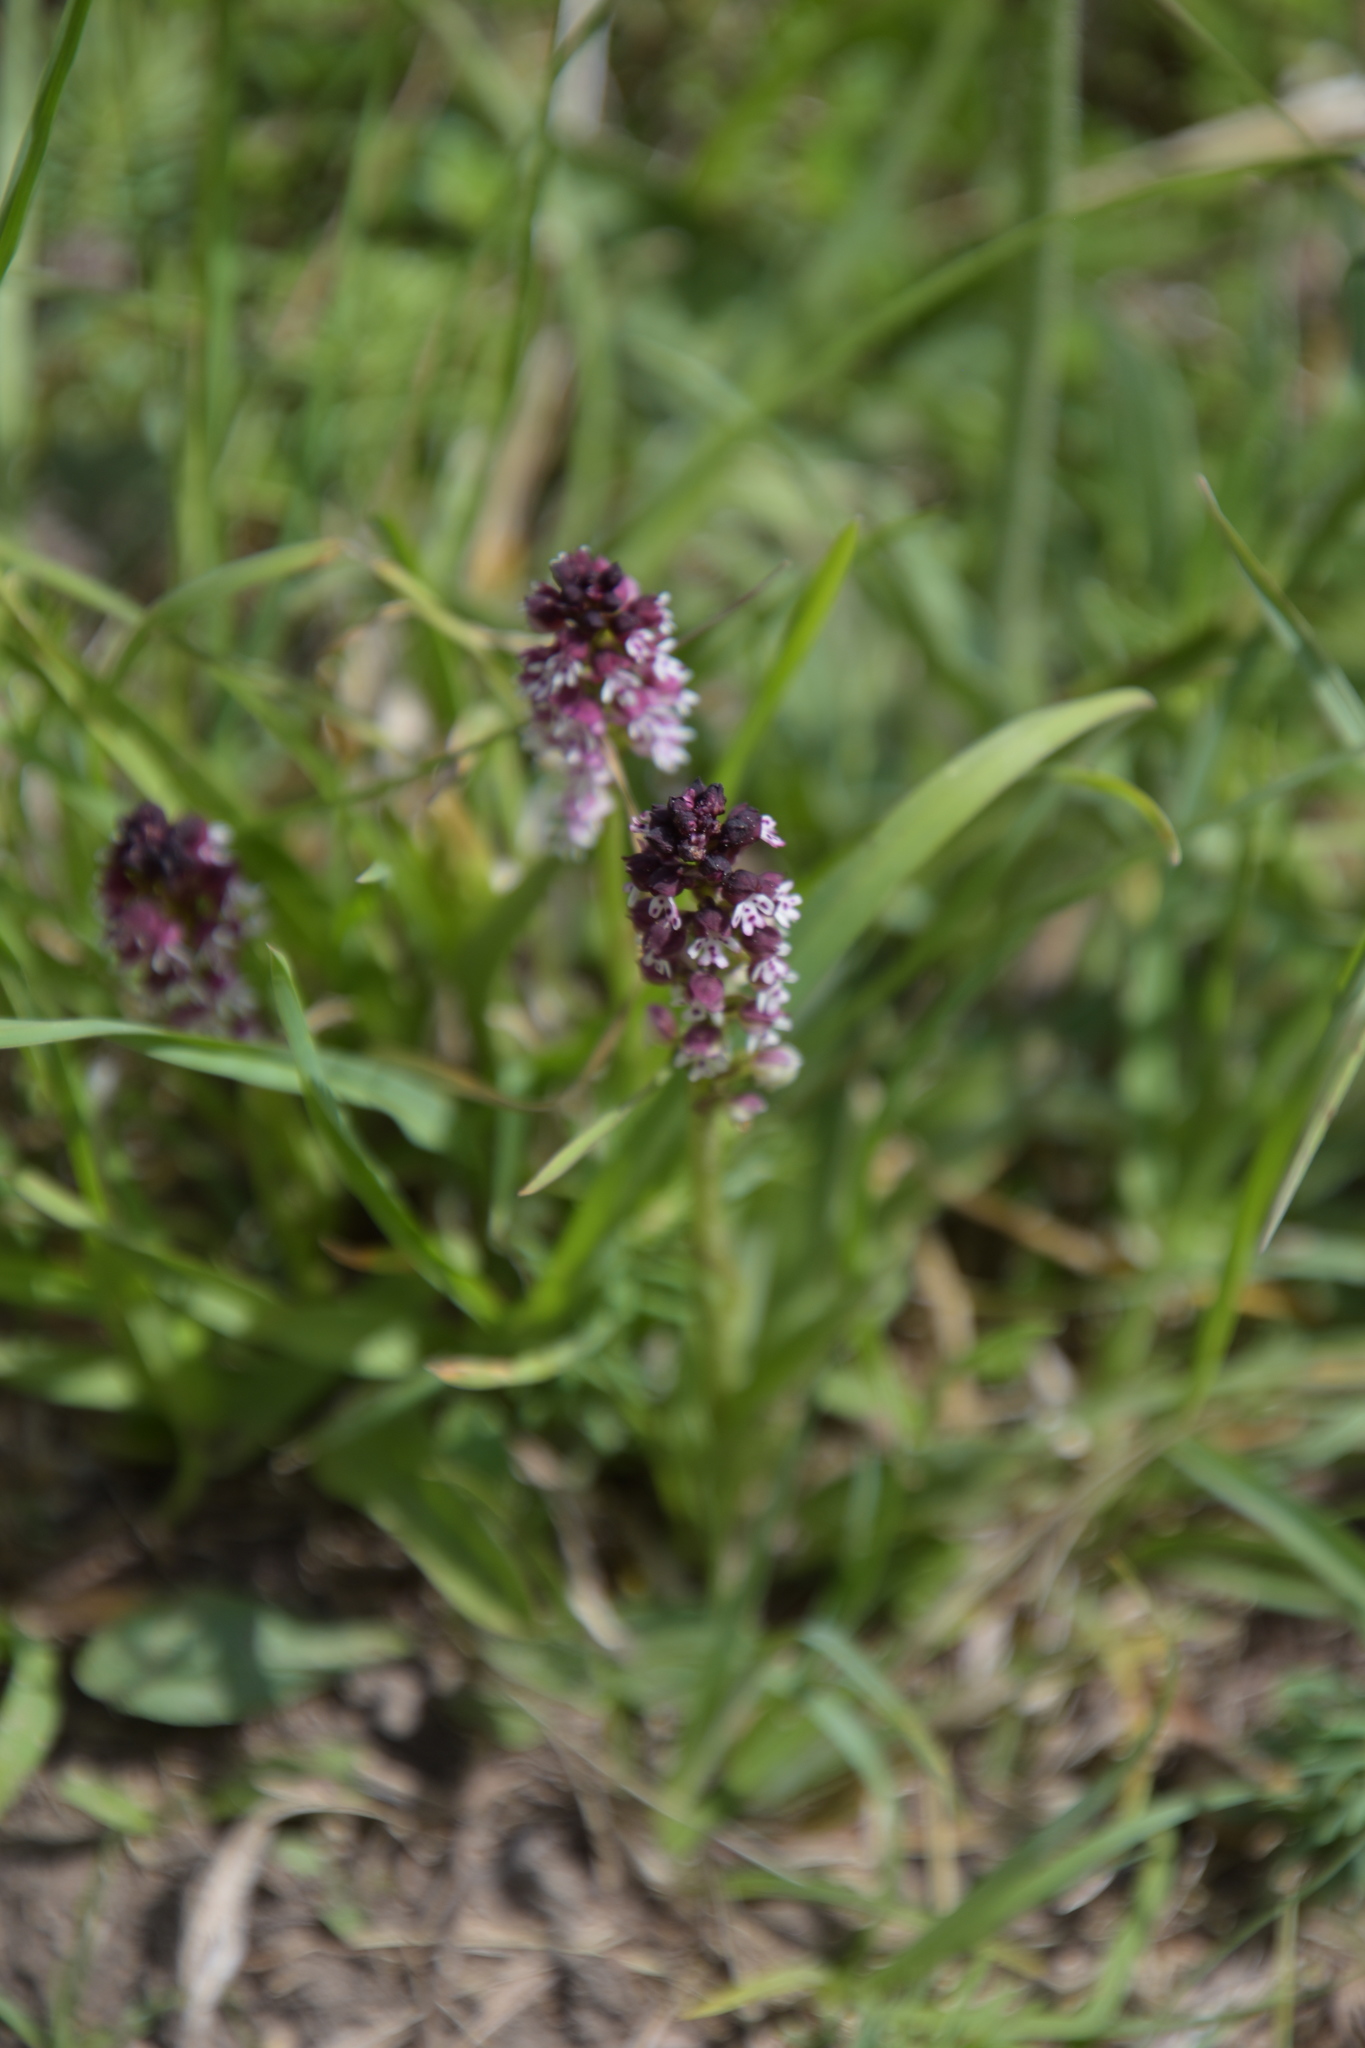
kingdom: Plantae
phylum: Tracheophyta
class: Liliopsida
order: Asparagales
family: Orchidaceae
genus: Neotinea
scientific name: Neotinea ustulata
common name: Burnt orchid
